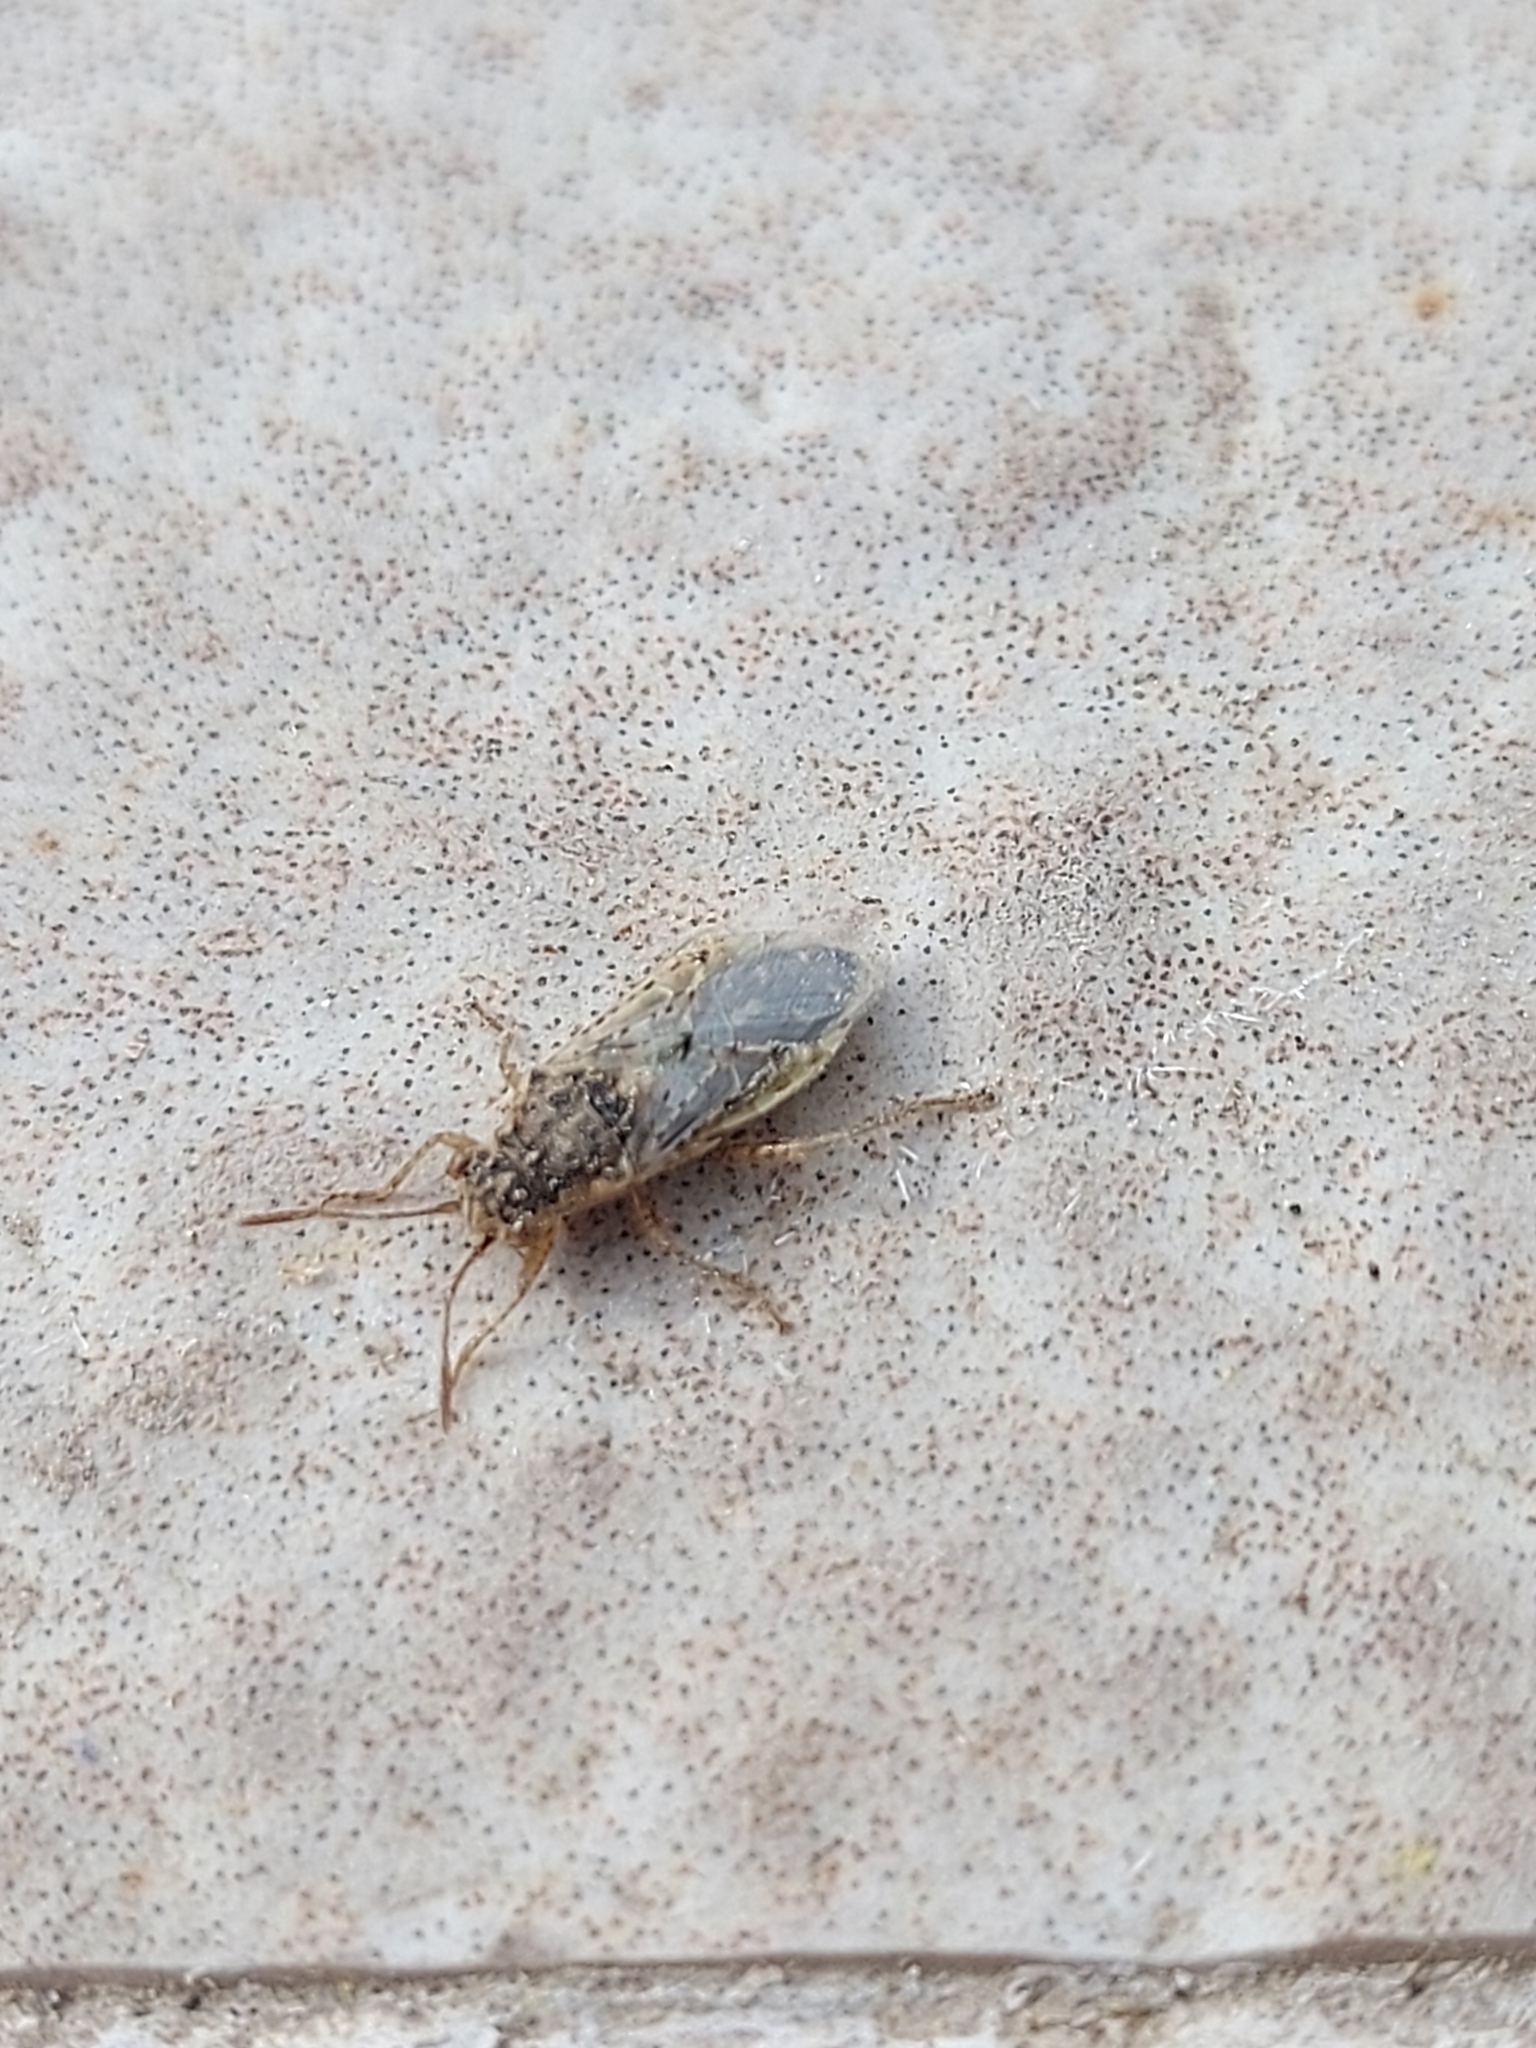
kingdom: Animalia
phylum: Arthropoda
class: Insecta
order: Hemiptera
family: Rhopalidae
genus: Brachycarenus
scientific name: Brachycarenus tigrinus
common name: Scentless plant bug
